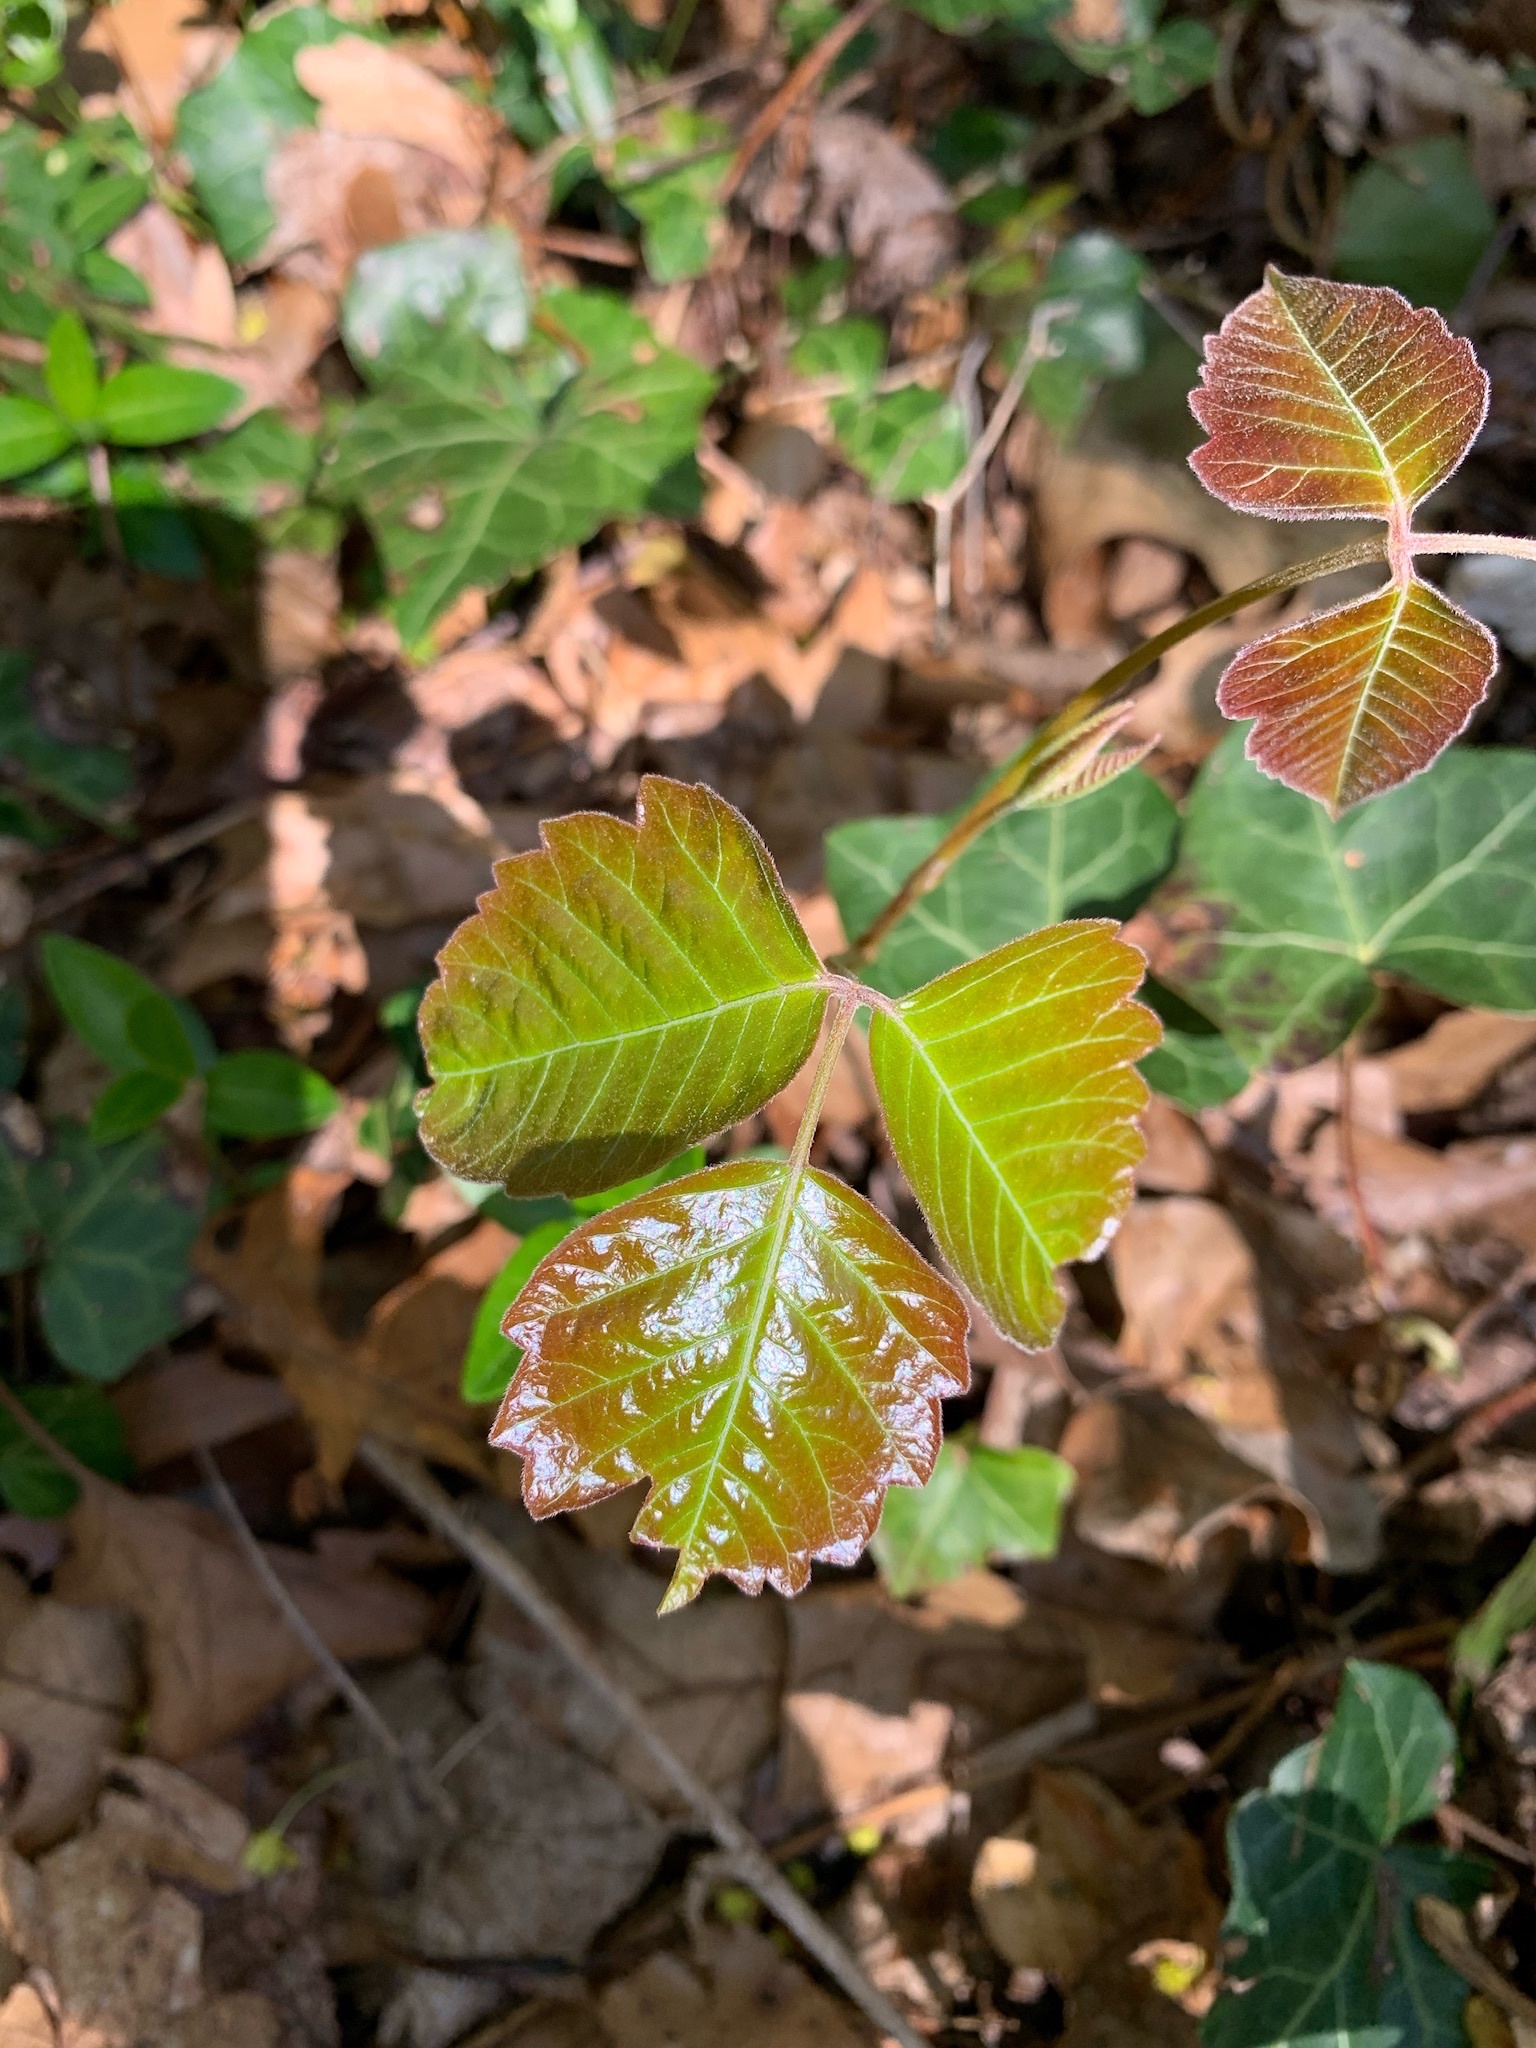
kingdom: Plantae
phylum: Tracheophyta
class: Magnoliopsida
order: Sapindales
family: Anacardiaceae
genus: Toxicodendron
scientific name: Toxicodendron radicans
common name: Poison ivy
